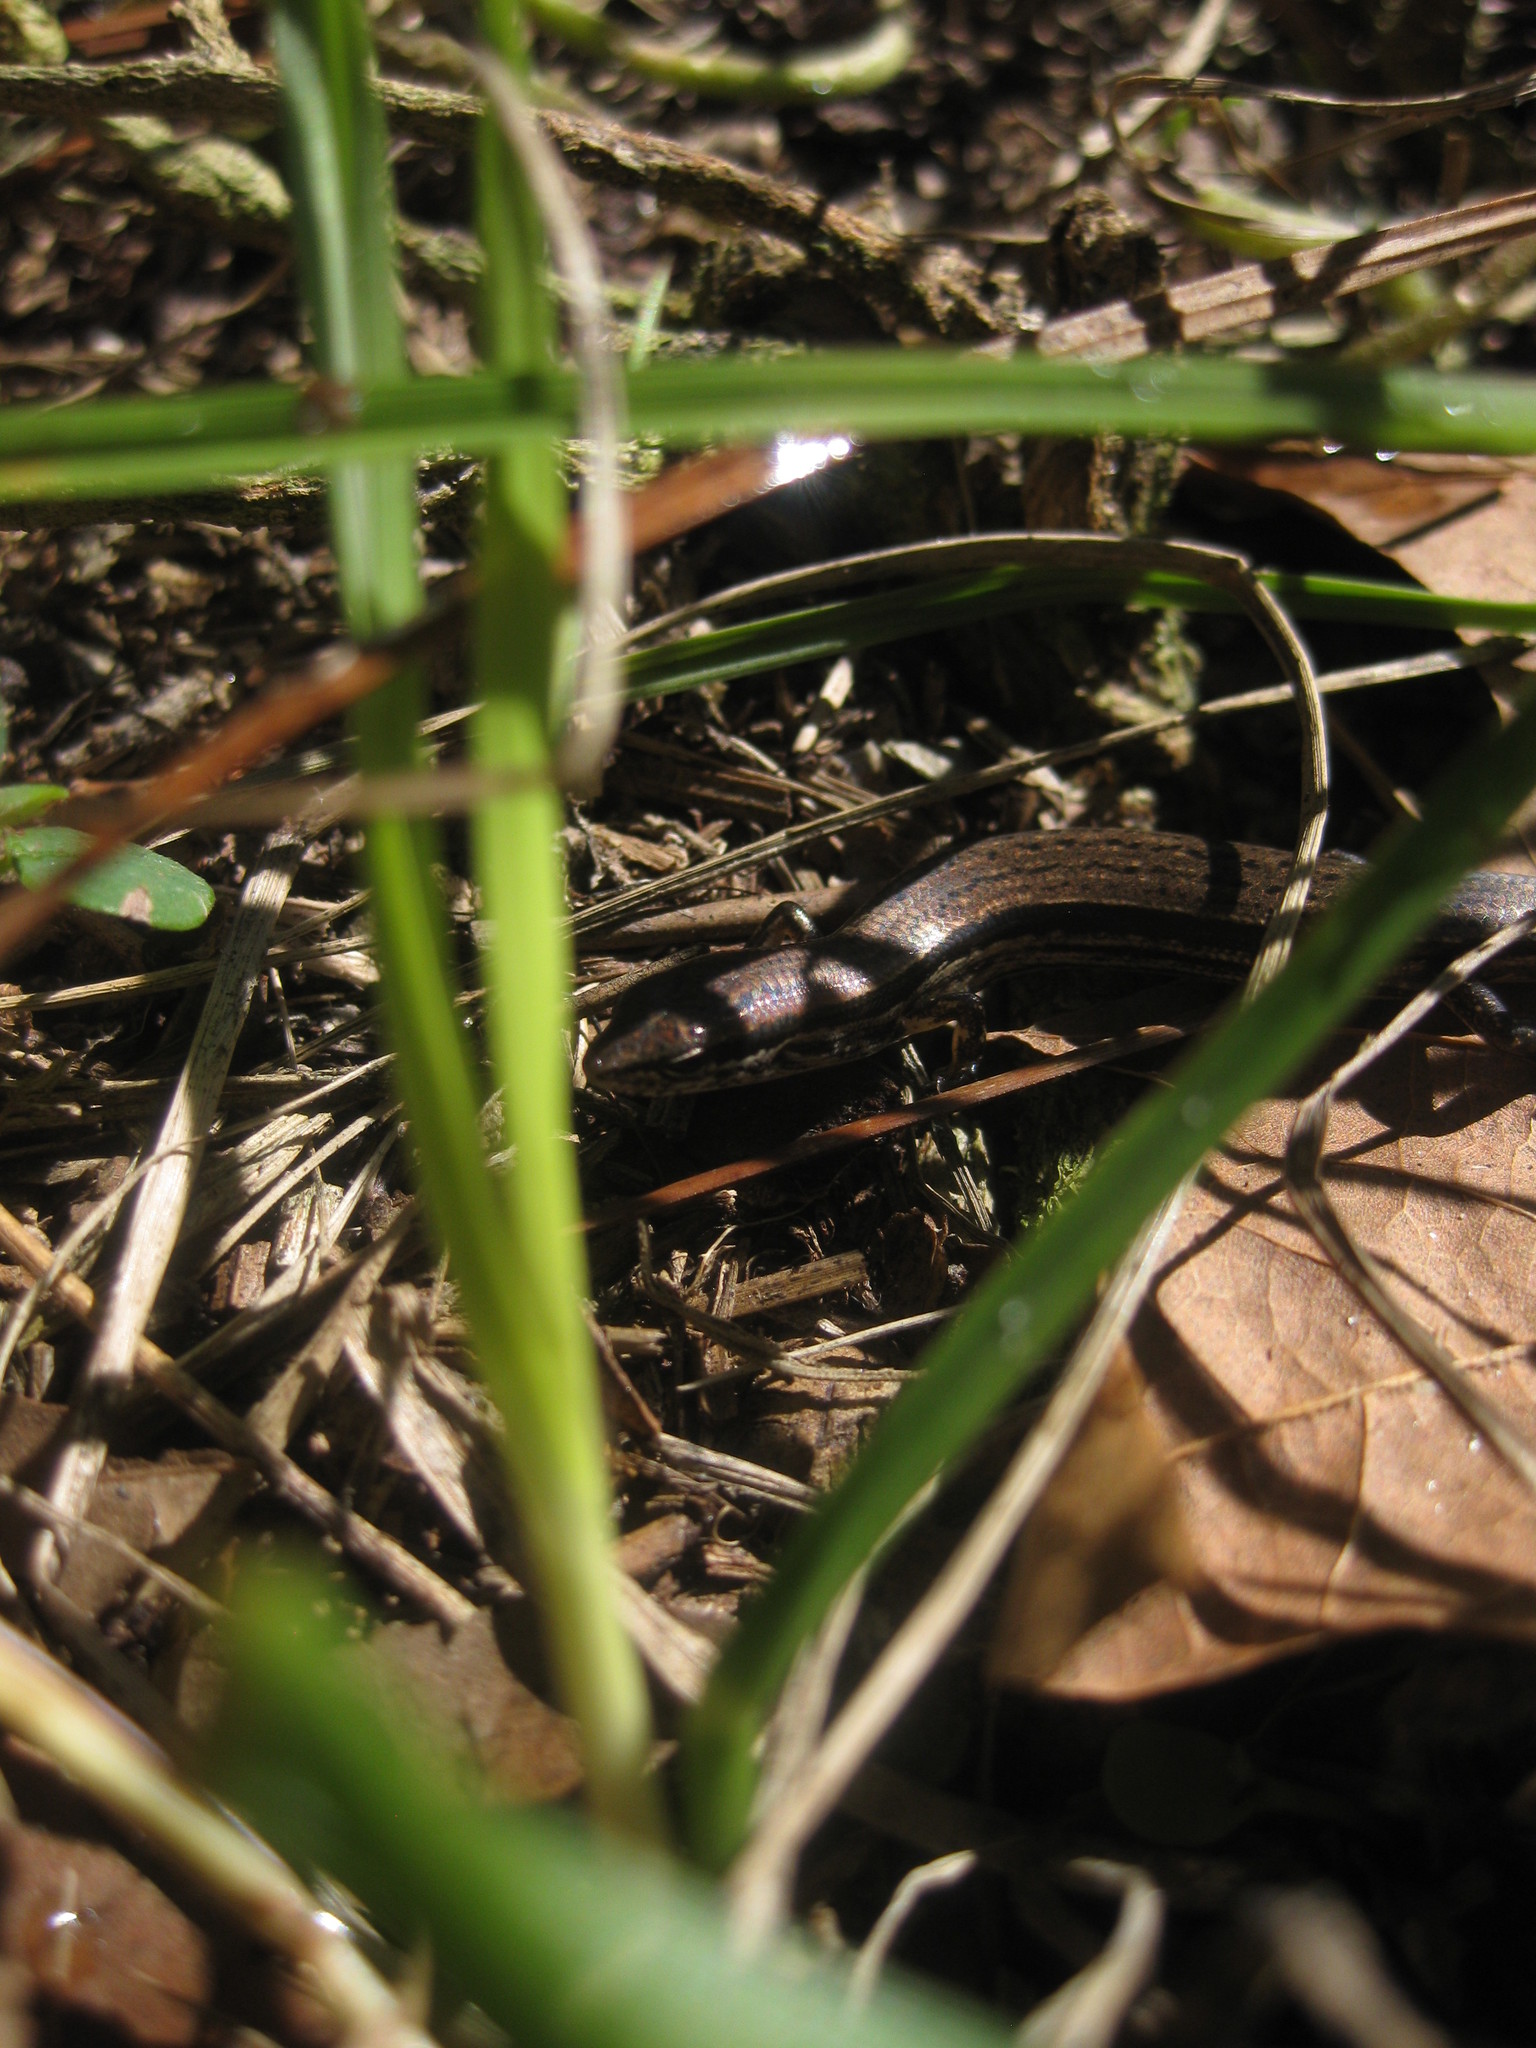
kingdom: Animalia
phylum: Chordata
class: Squamata
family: Scincidae
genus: Scincella
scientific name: Scincella lateralis
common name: Ground skink
